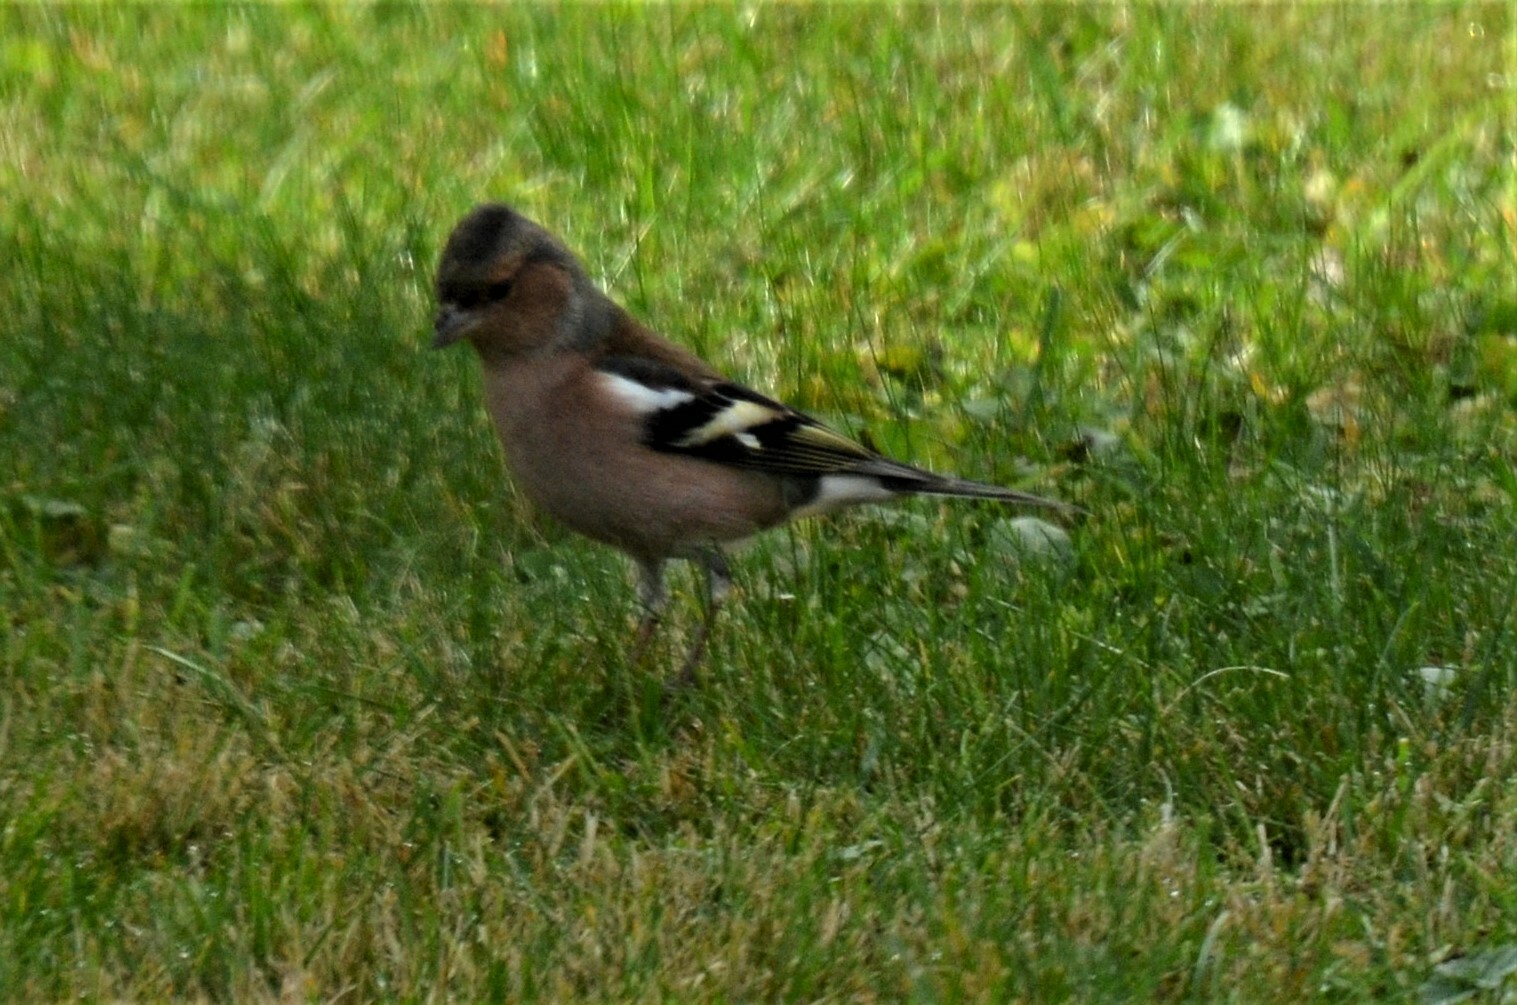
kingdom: Animalia
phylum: Chordata
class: Aves
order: Passeriformes
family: Fringillidae
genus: Fringilla
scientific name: Fringilla coelebs
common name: Common chaffinch
